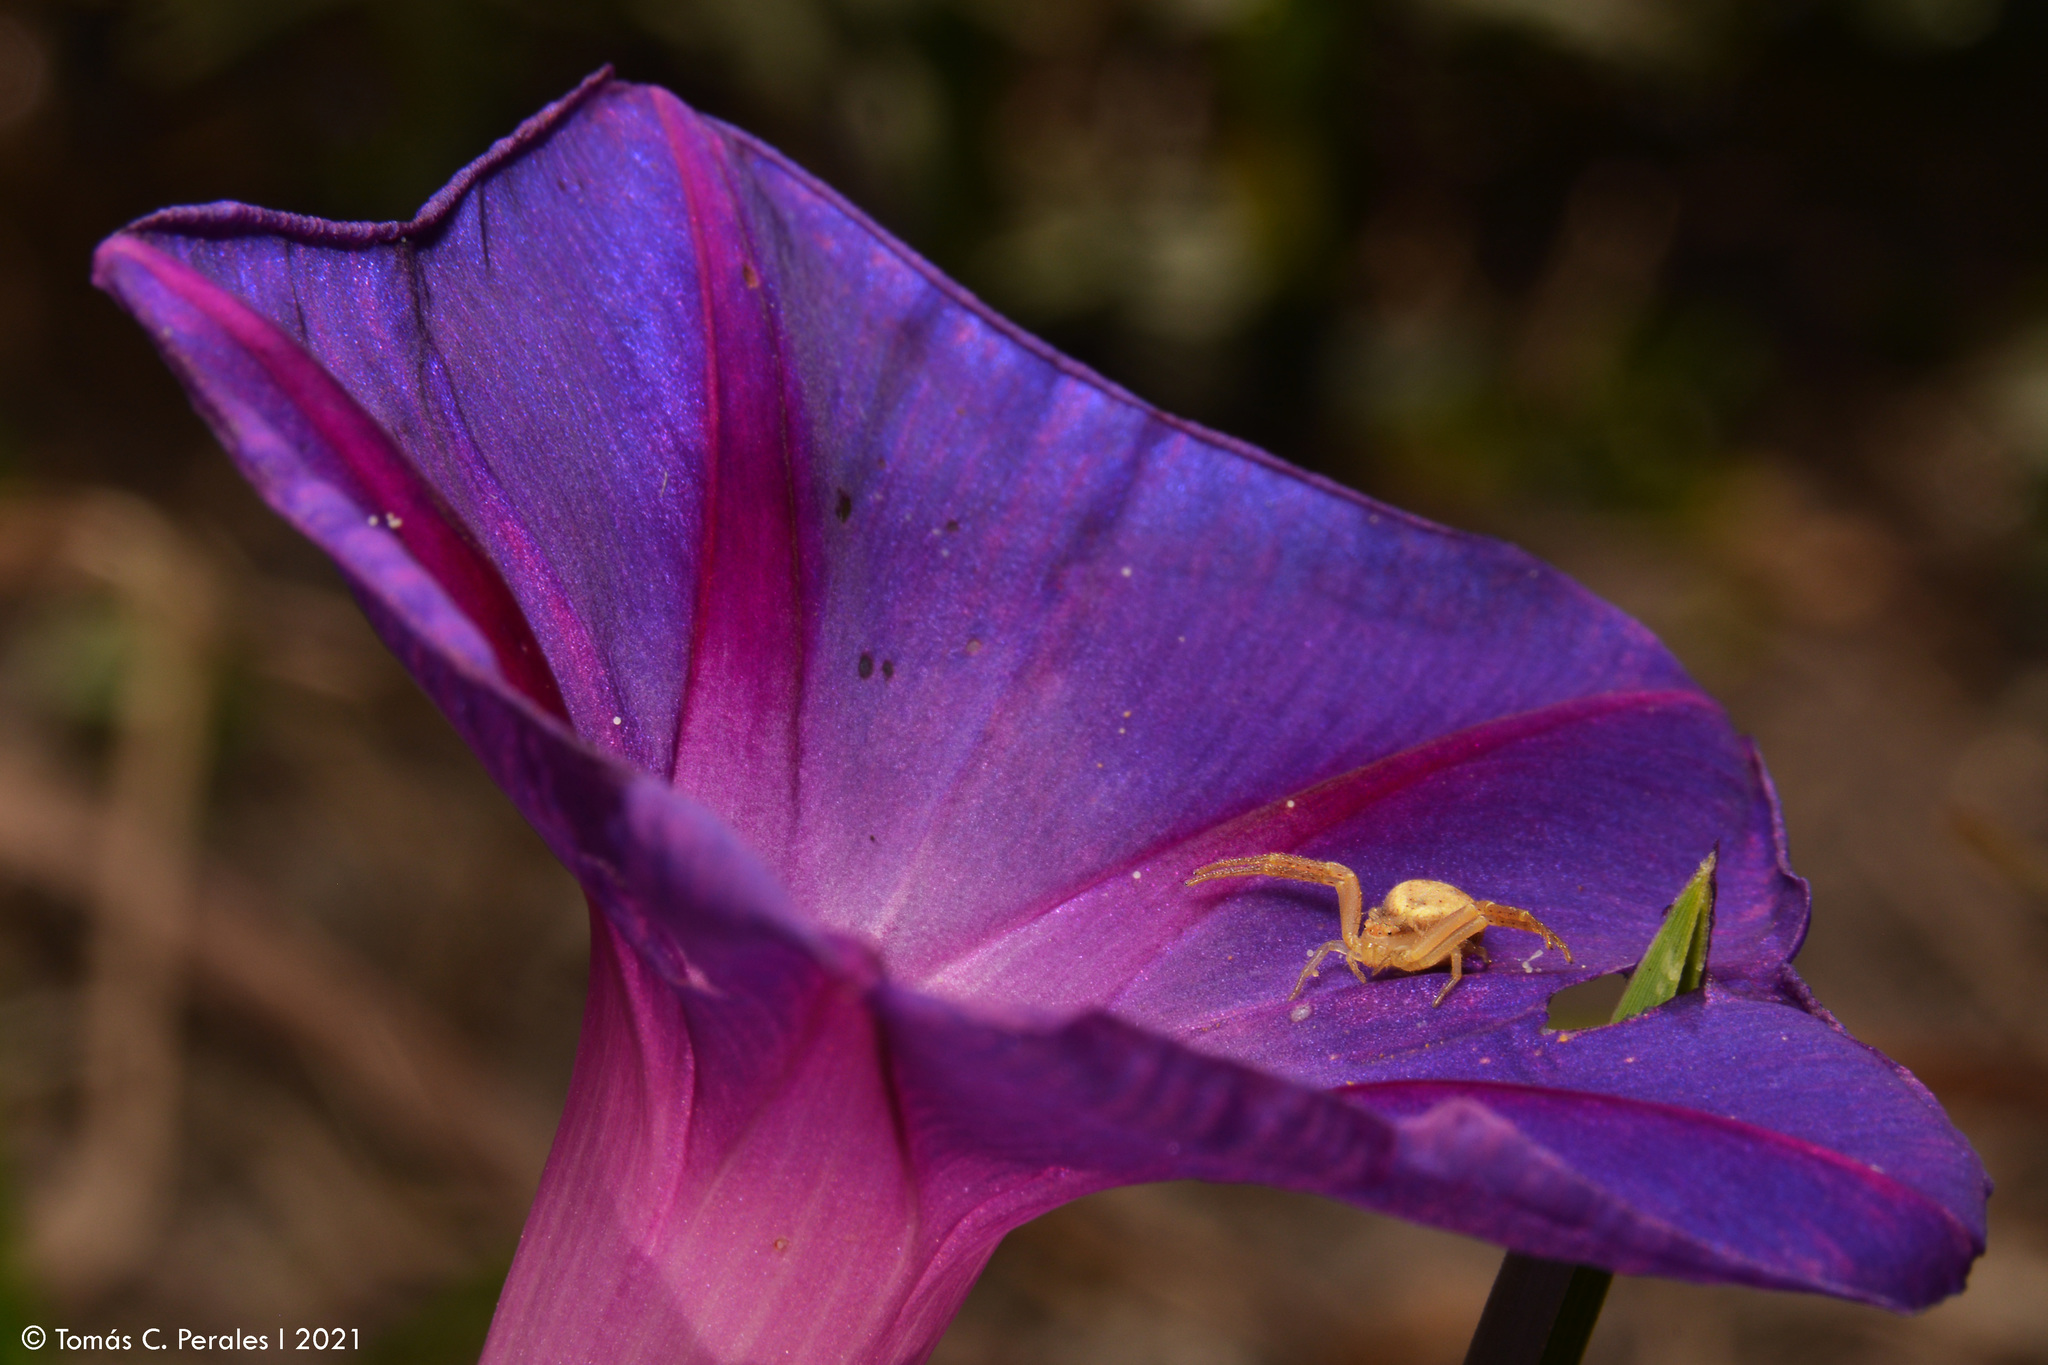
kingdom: Animalia
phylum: Arthropoda
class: Arachnida
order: Araneae
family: Thomisidae
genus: Misumenops
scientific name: Misumenops
